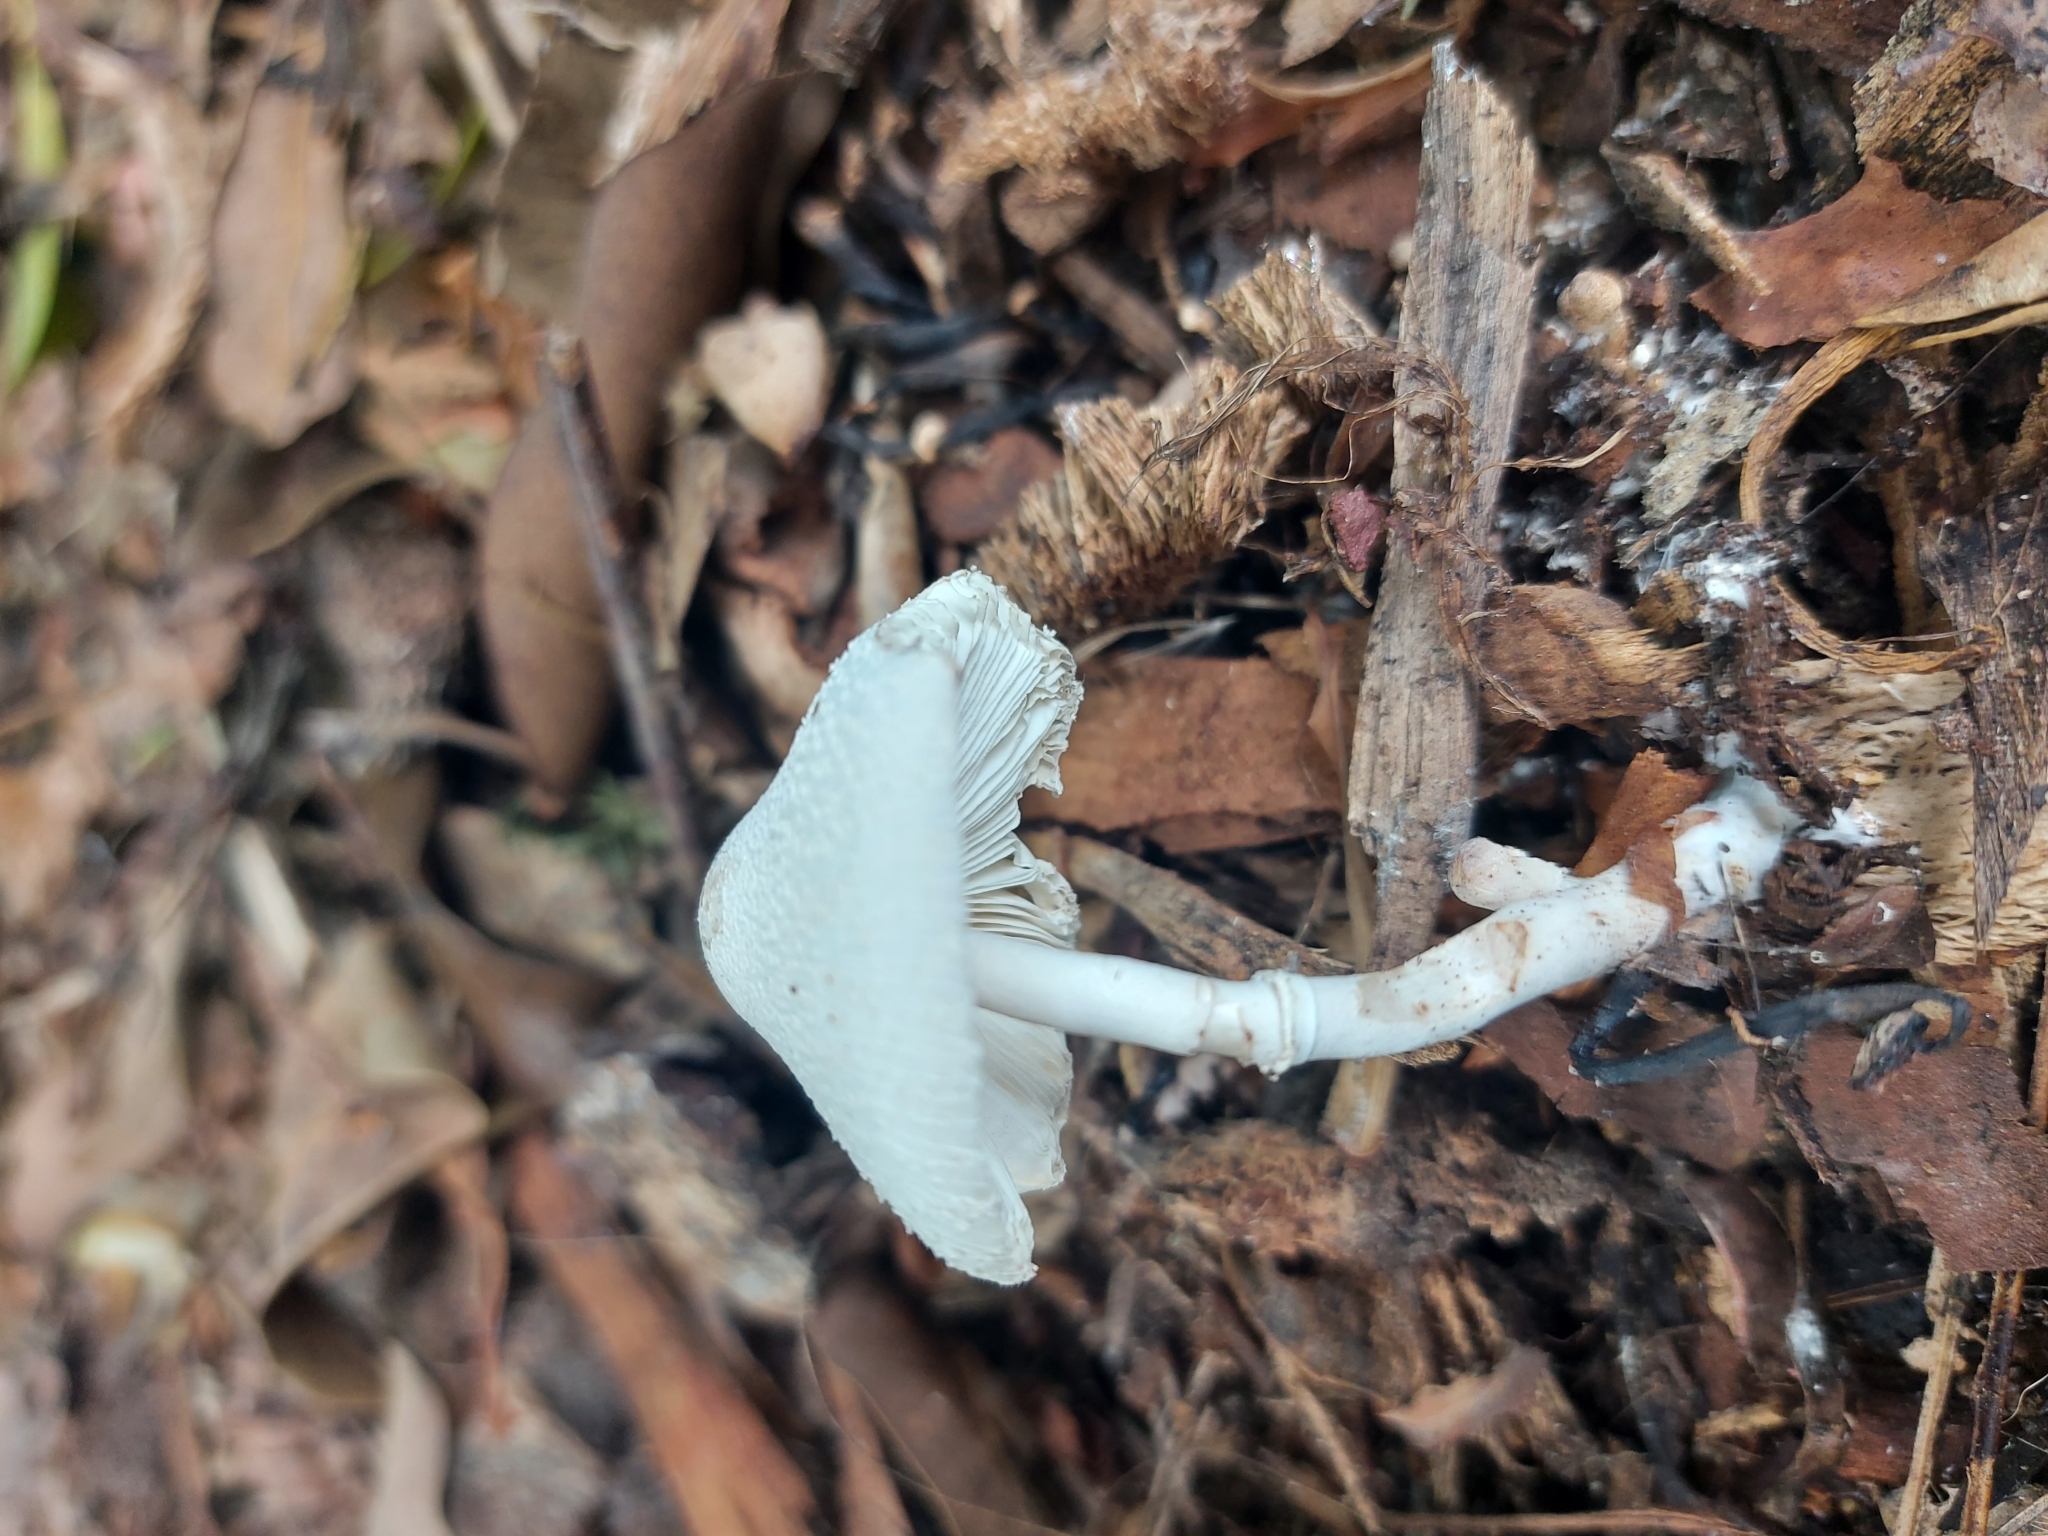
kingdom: Fungi
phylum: Basidiomycota
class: Agaricomycetes
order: Agaricales
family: Agaricaceae
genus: Leucocoprinus
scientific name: Leucocoprinus cepistipes
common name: Onion-stalk parasol
